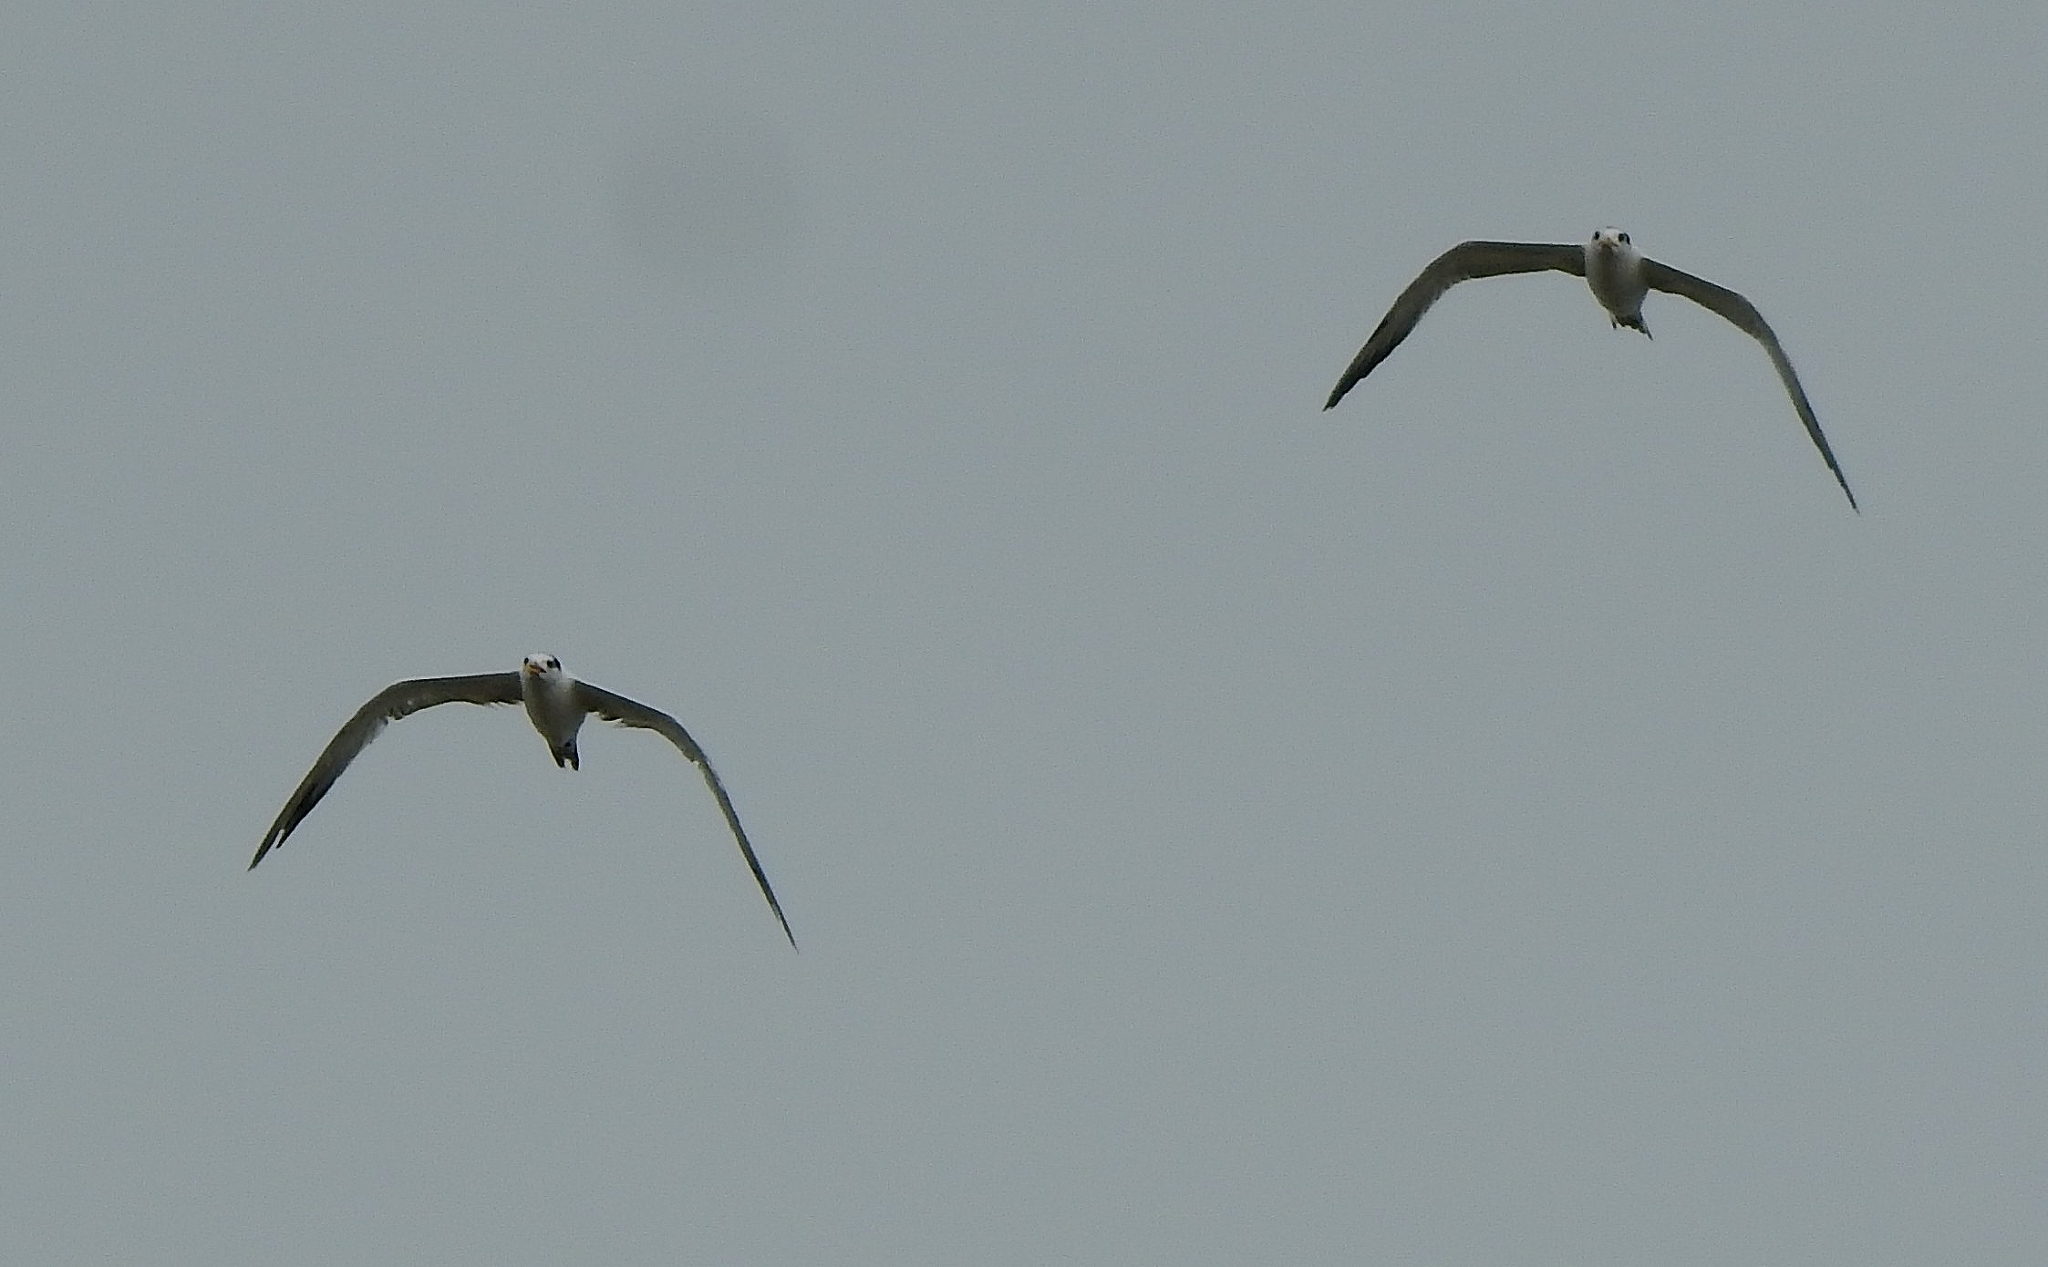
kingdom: Animalia
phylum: Chordata
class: Aves
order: Charadriiformes
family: Laridae
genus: Thalasseus
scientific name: Thalasseus bergii
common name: Greater crested tern
